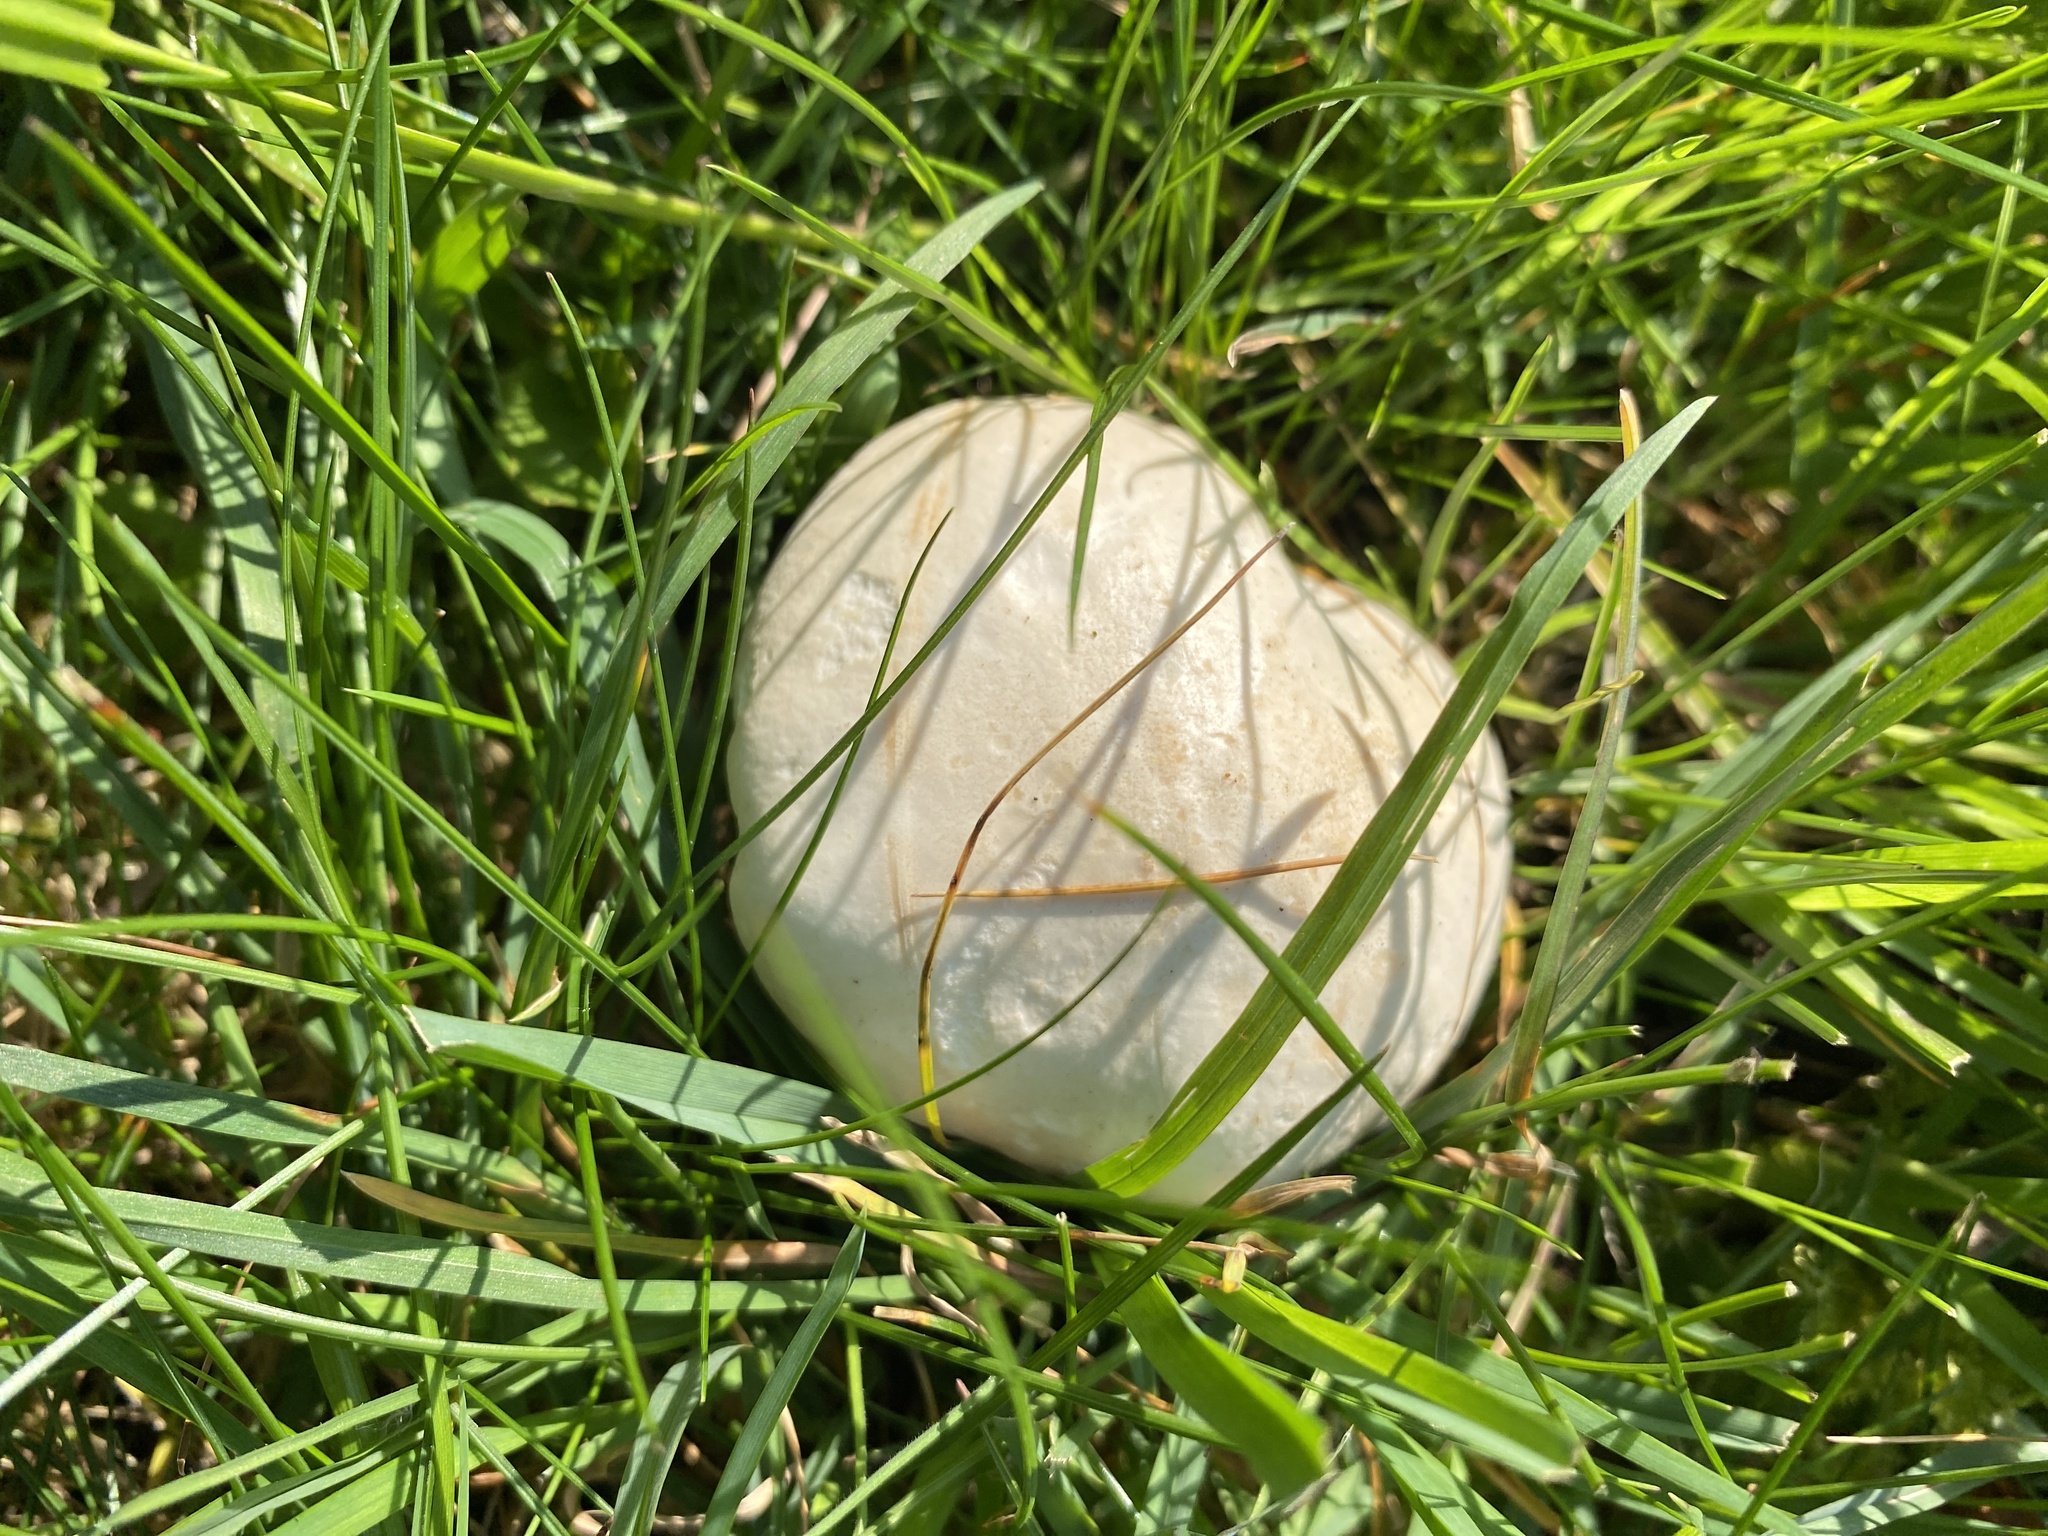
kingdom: Fungi
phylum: Basidiomycota
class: Agaricomycetes
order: Agaricales
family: Lyophyllaceae
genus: Calocybe
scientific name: Calocybe gambosa
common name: St. george's mushroom
